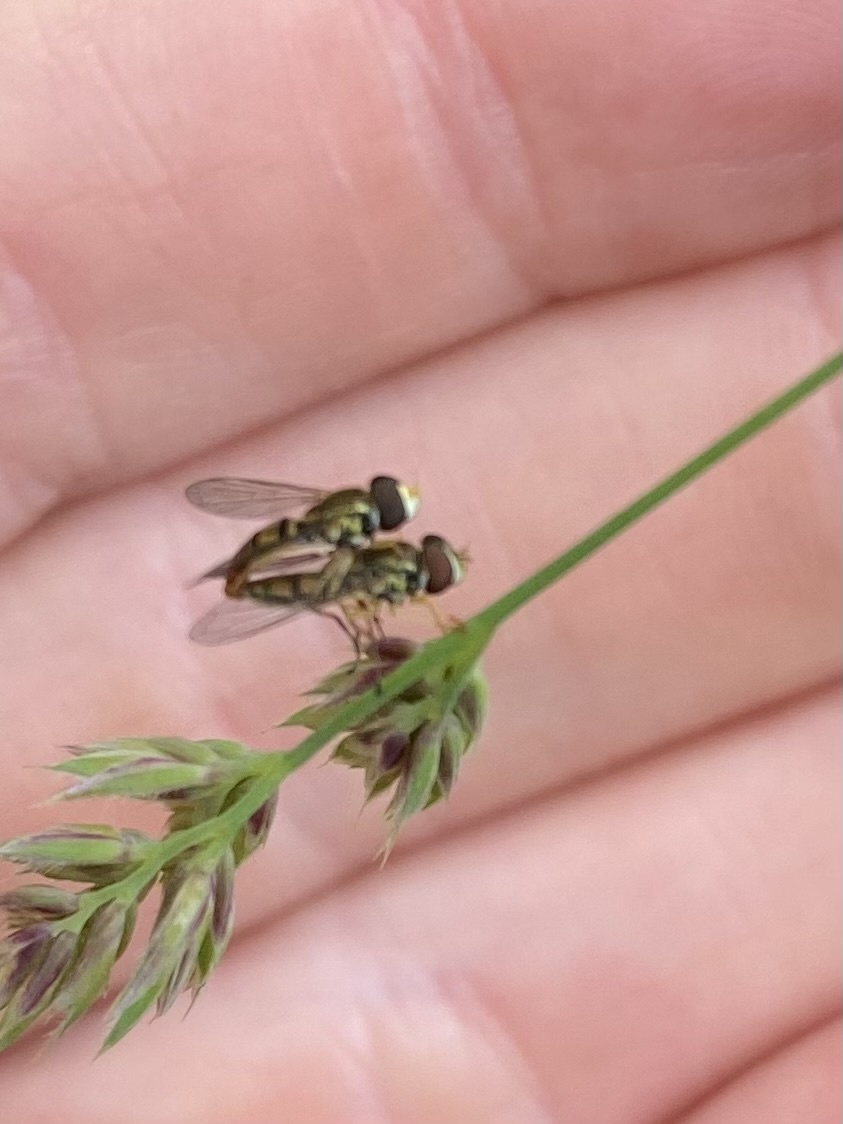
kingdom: Animalia
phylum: Arthropoda
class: Insecta
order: Diptera
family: Syrphidae
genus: Toxomerus
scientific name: Toxomerus marginatus
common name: Syrphid fly
